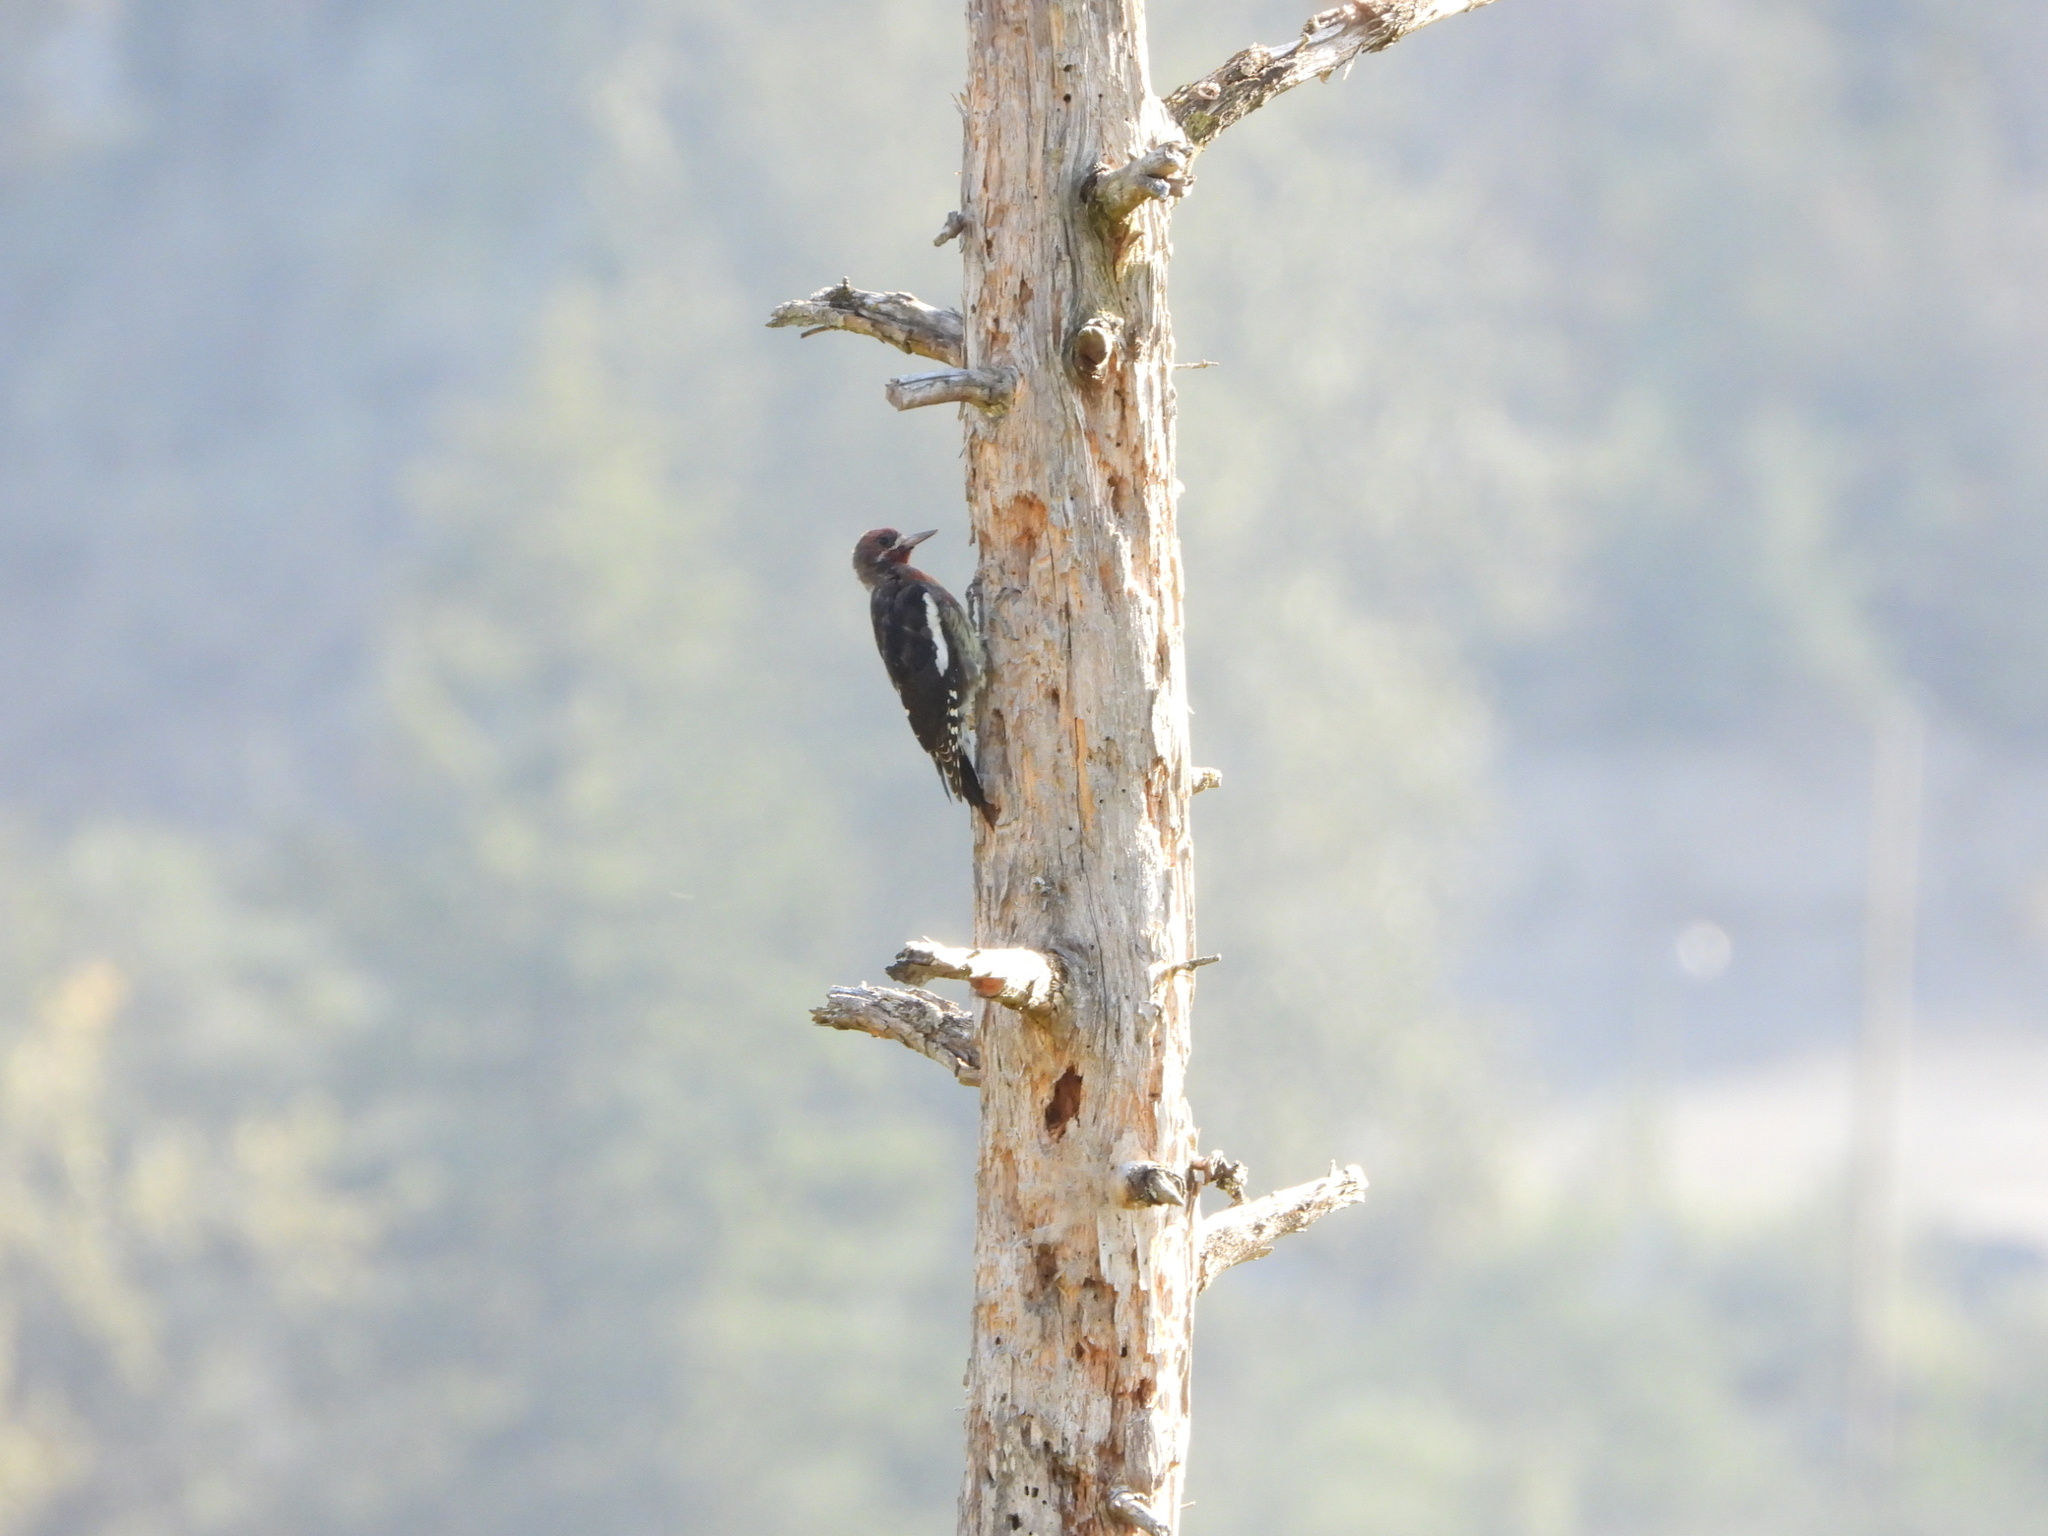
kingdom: Animalia
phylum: Chordata
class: Aves
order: Piciformes
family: Picidae
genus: Sphyrapicus
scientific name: Sphyrapicus ruber
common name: Red-breasted sapsucker
